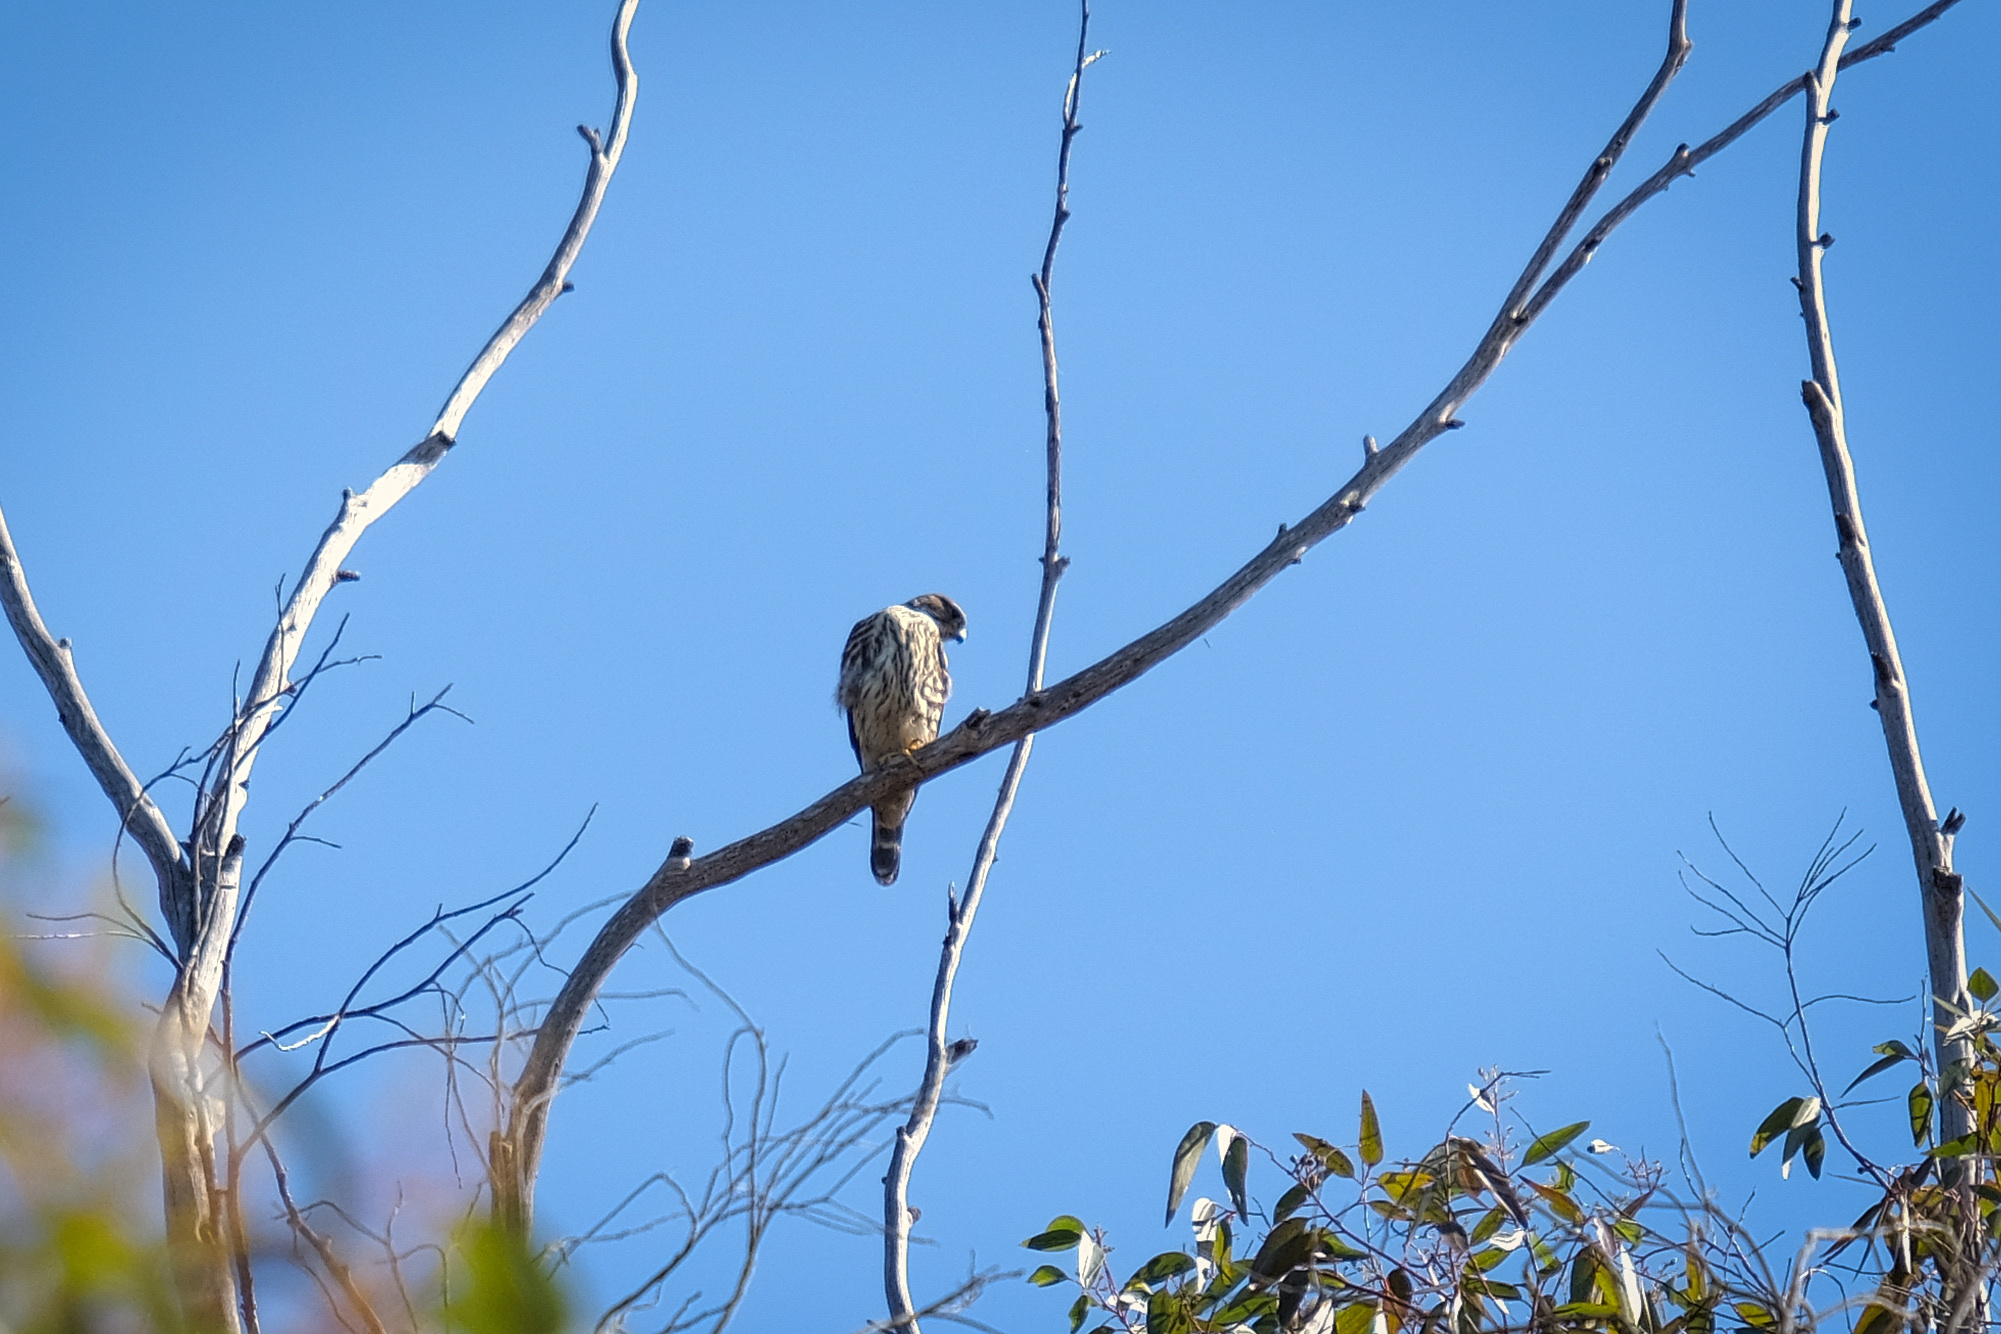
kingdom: Animalia
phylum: Chordata
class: Aves
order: Falconiformes
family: Falconidae
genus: Falco
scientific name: Falco columbarius
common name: Merlin
